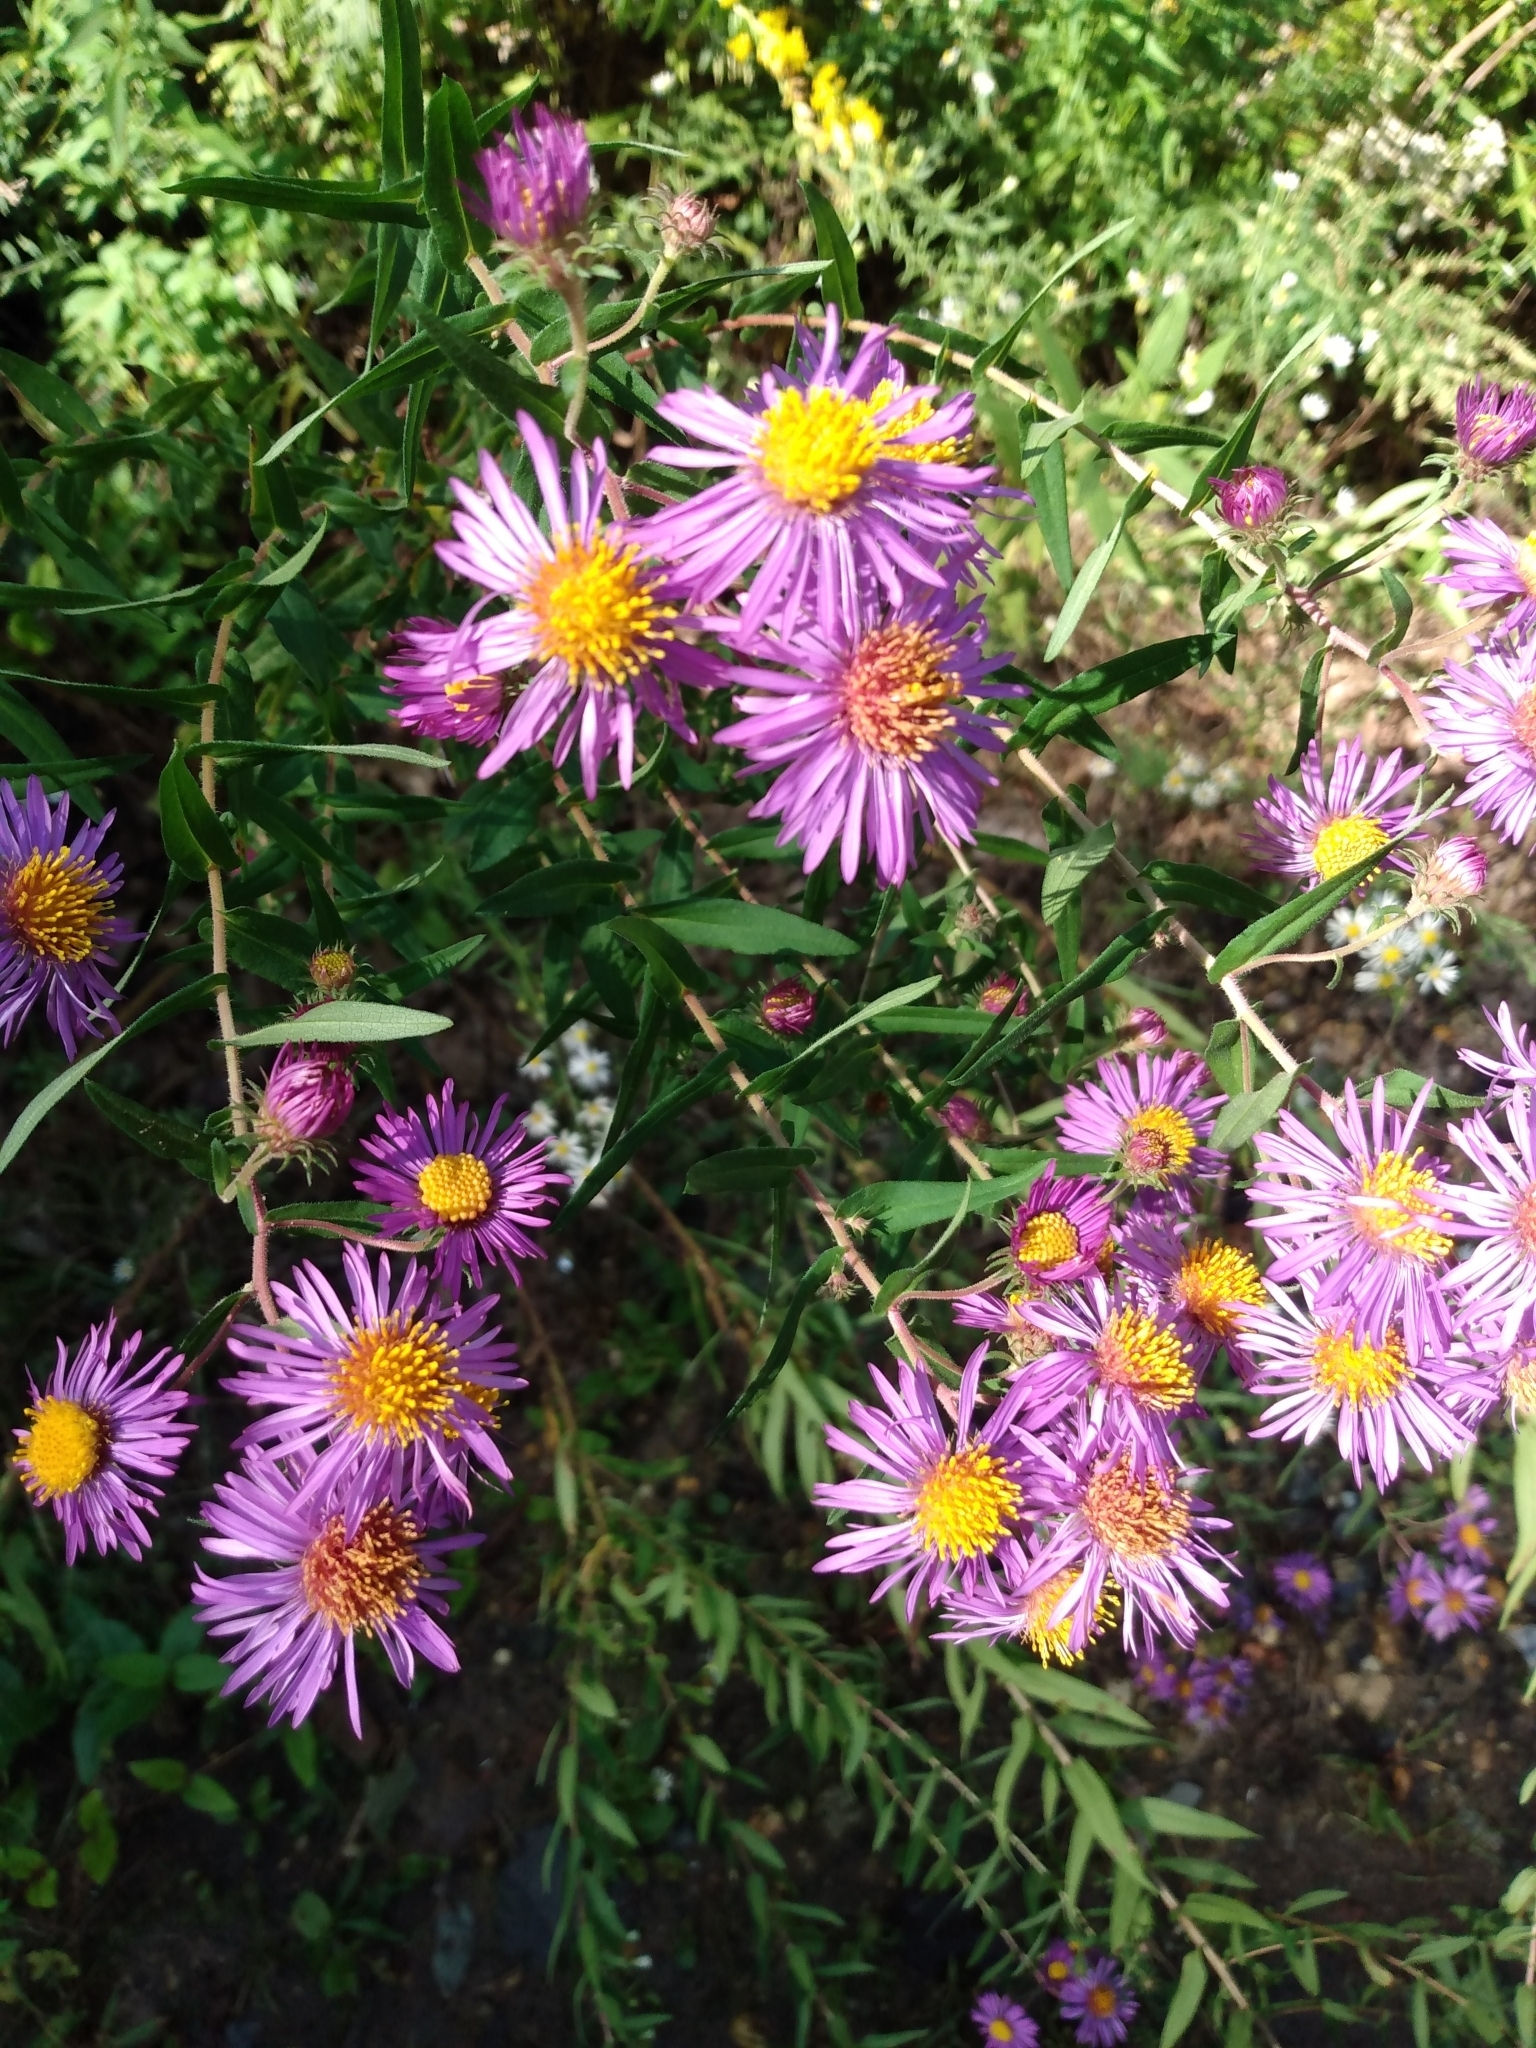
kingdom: Plantae
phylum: Tracheophyta
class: Magnoliopsida
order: Asterales
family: Asteraceae
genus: Symphyotrichum
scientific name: Symphyotrichum novae-angliae
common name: Michaelmas daisy
